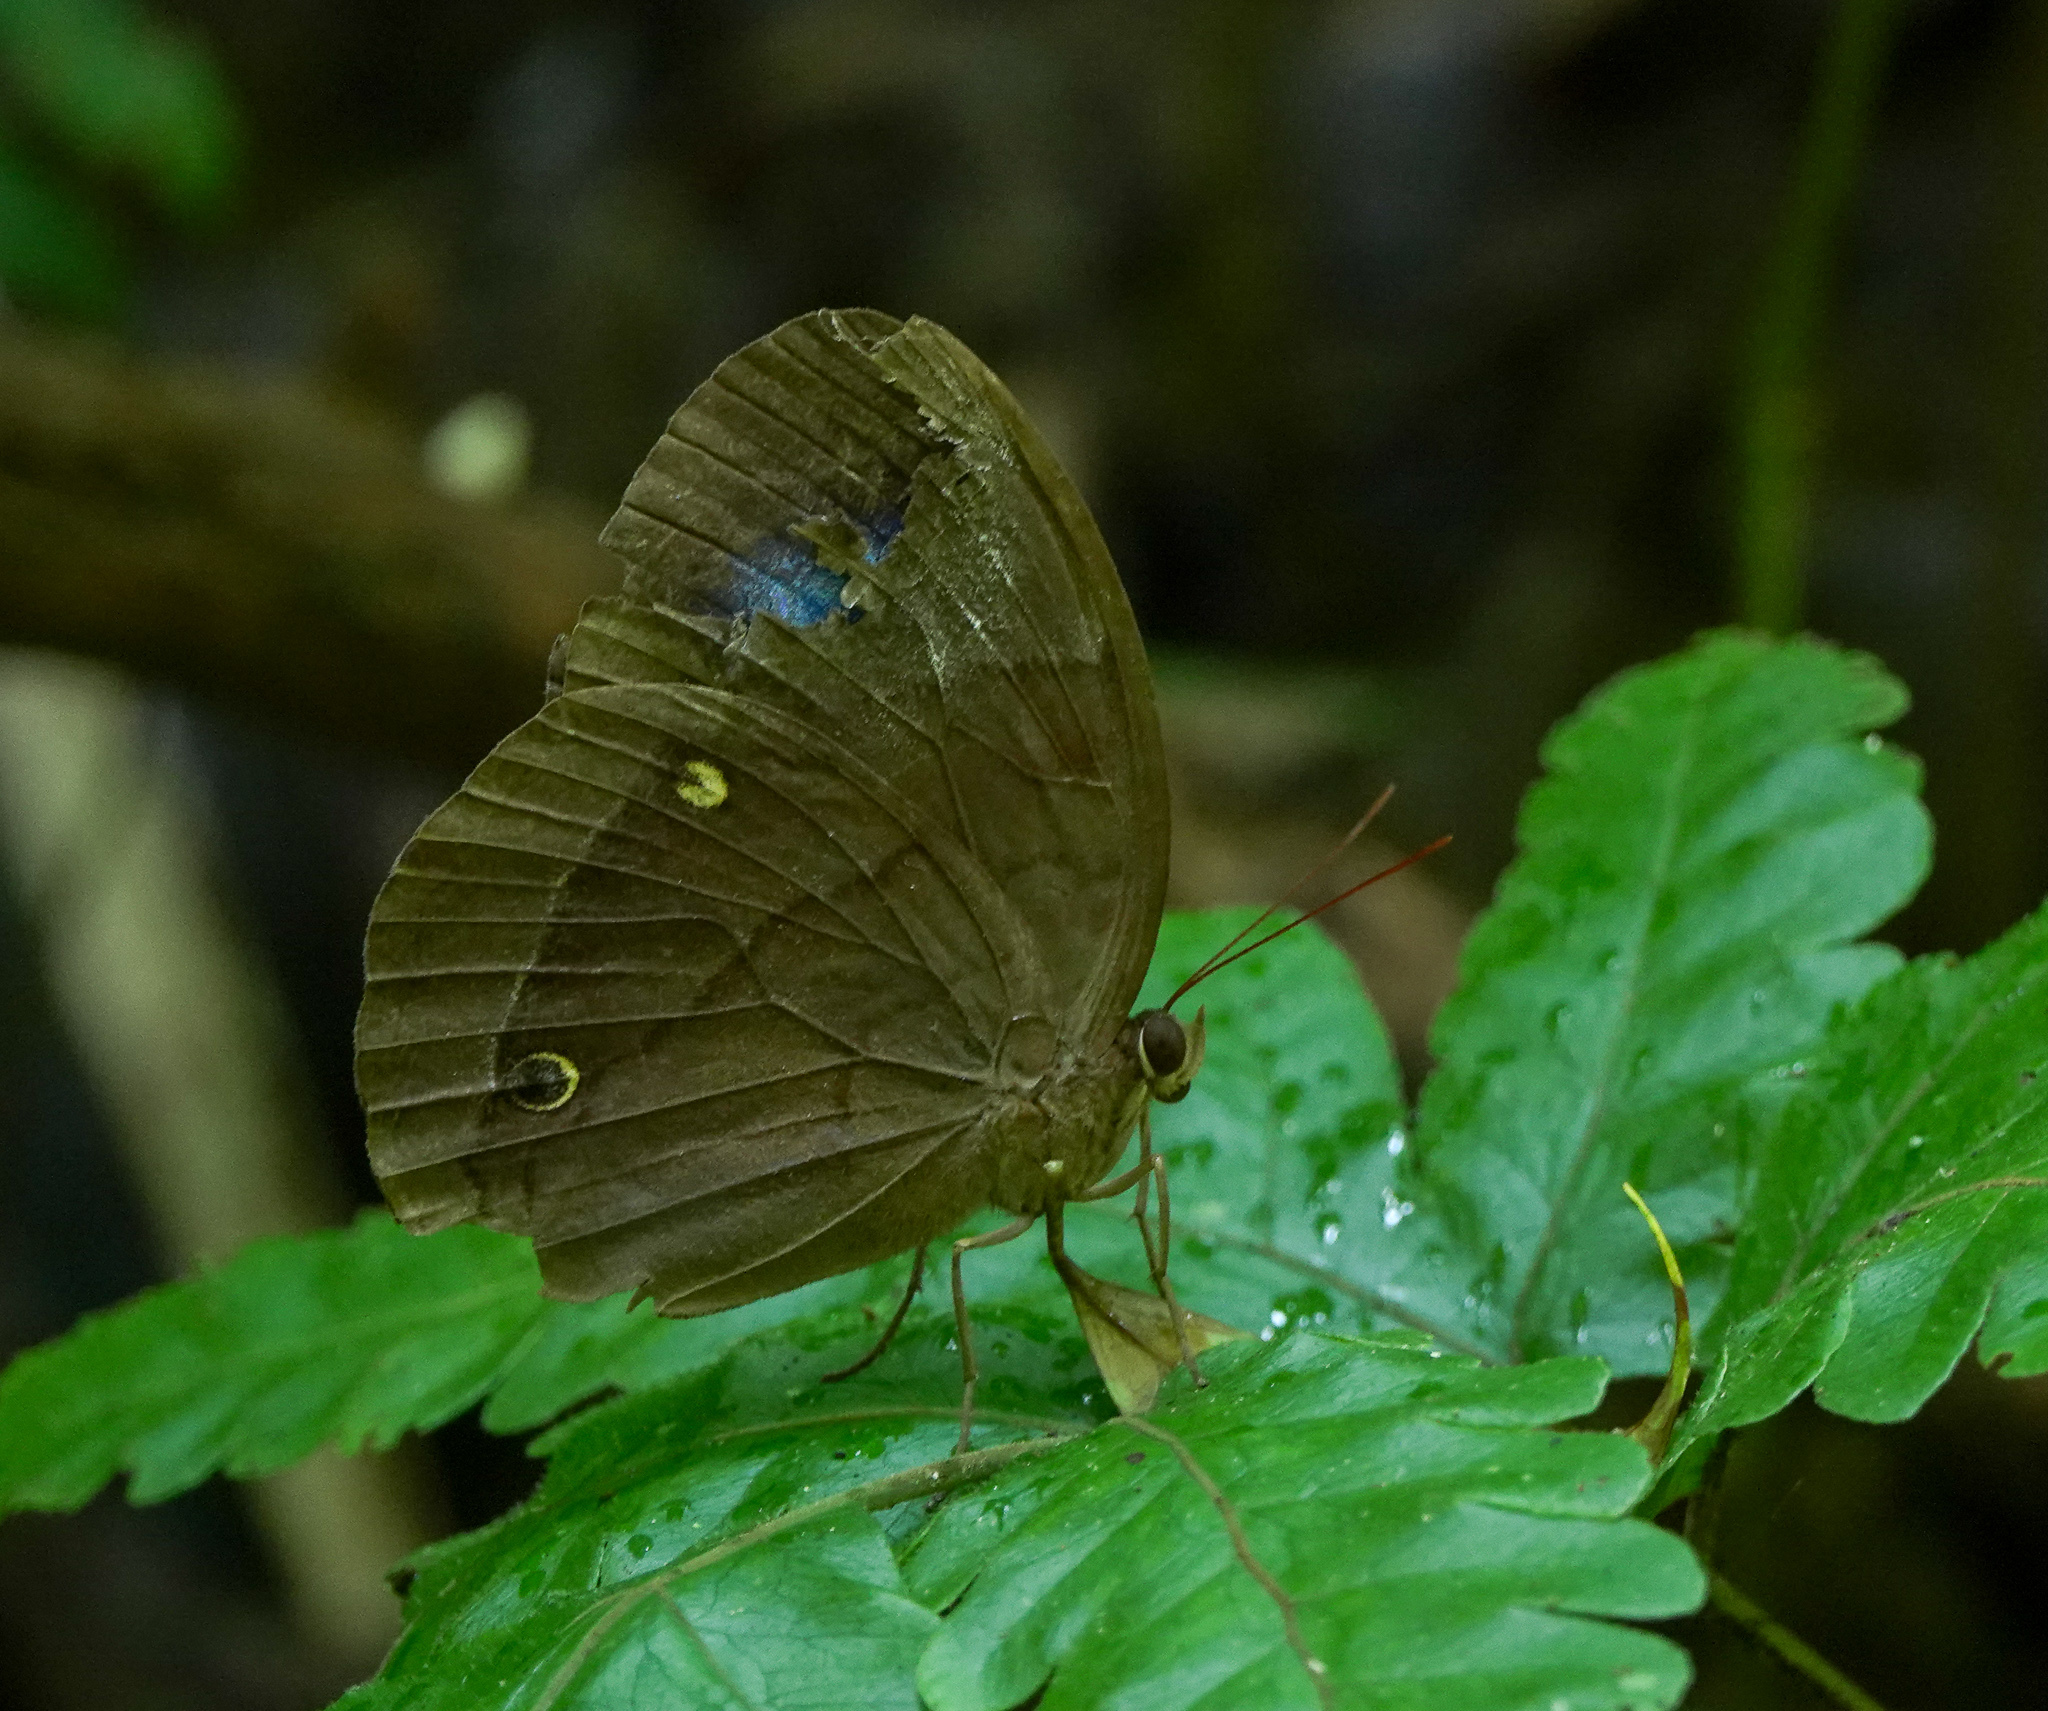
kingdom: Animalia
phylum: Arthropoda
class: Insecta
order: Lepidoptera
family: Nymphalidae
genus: Thaumantis
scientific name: Thaumantis diores
